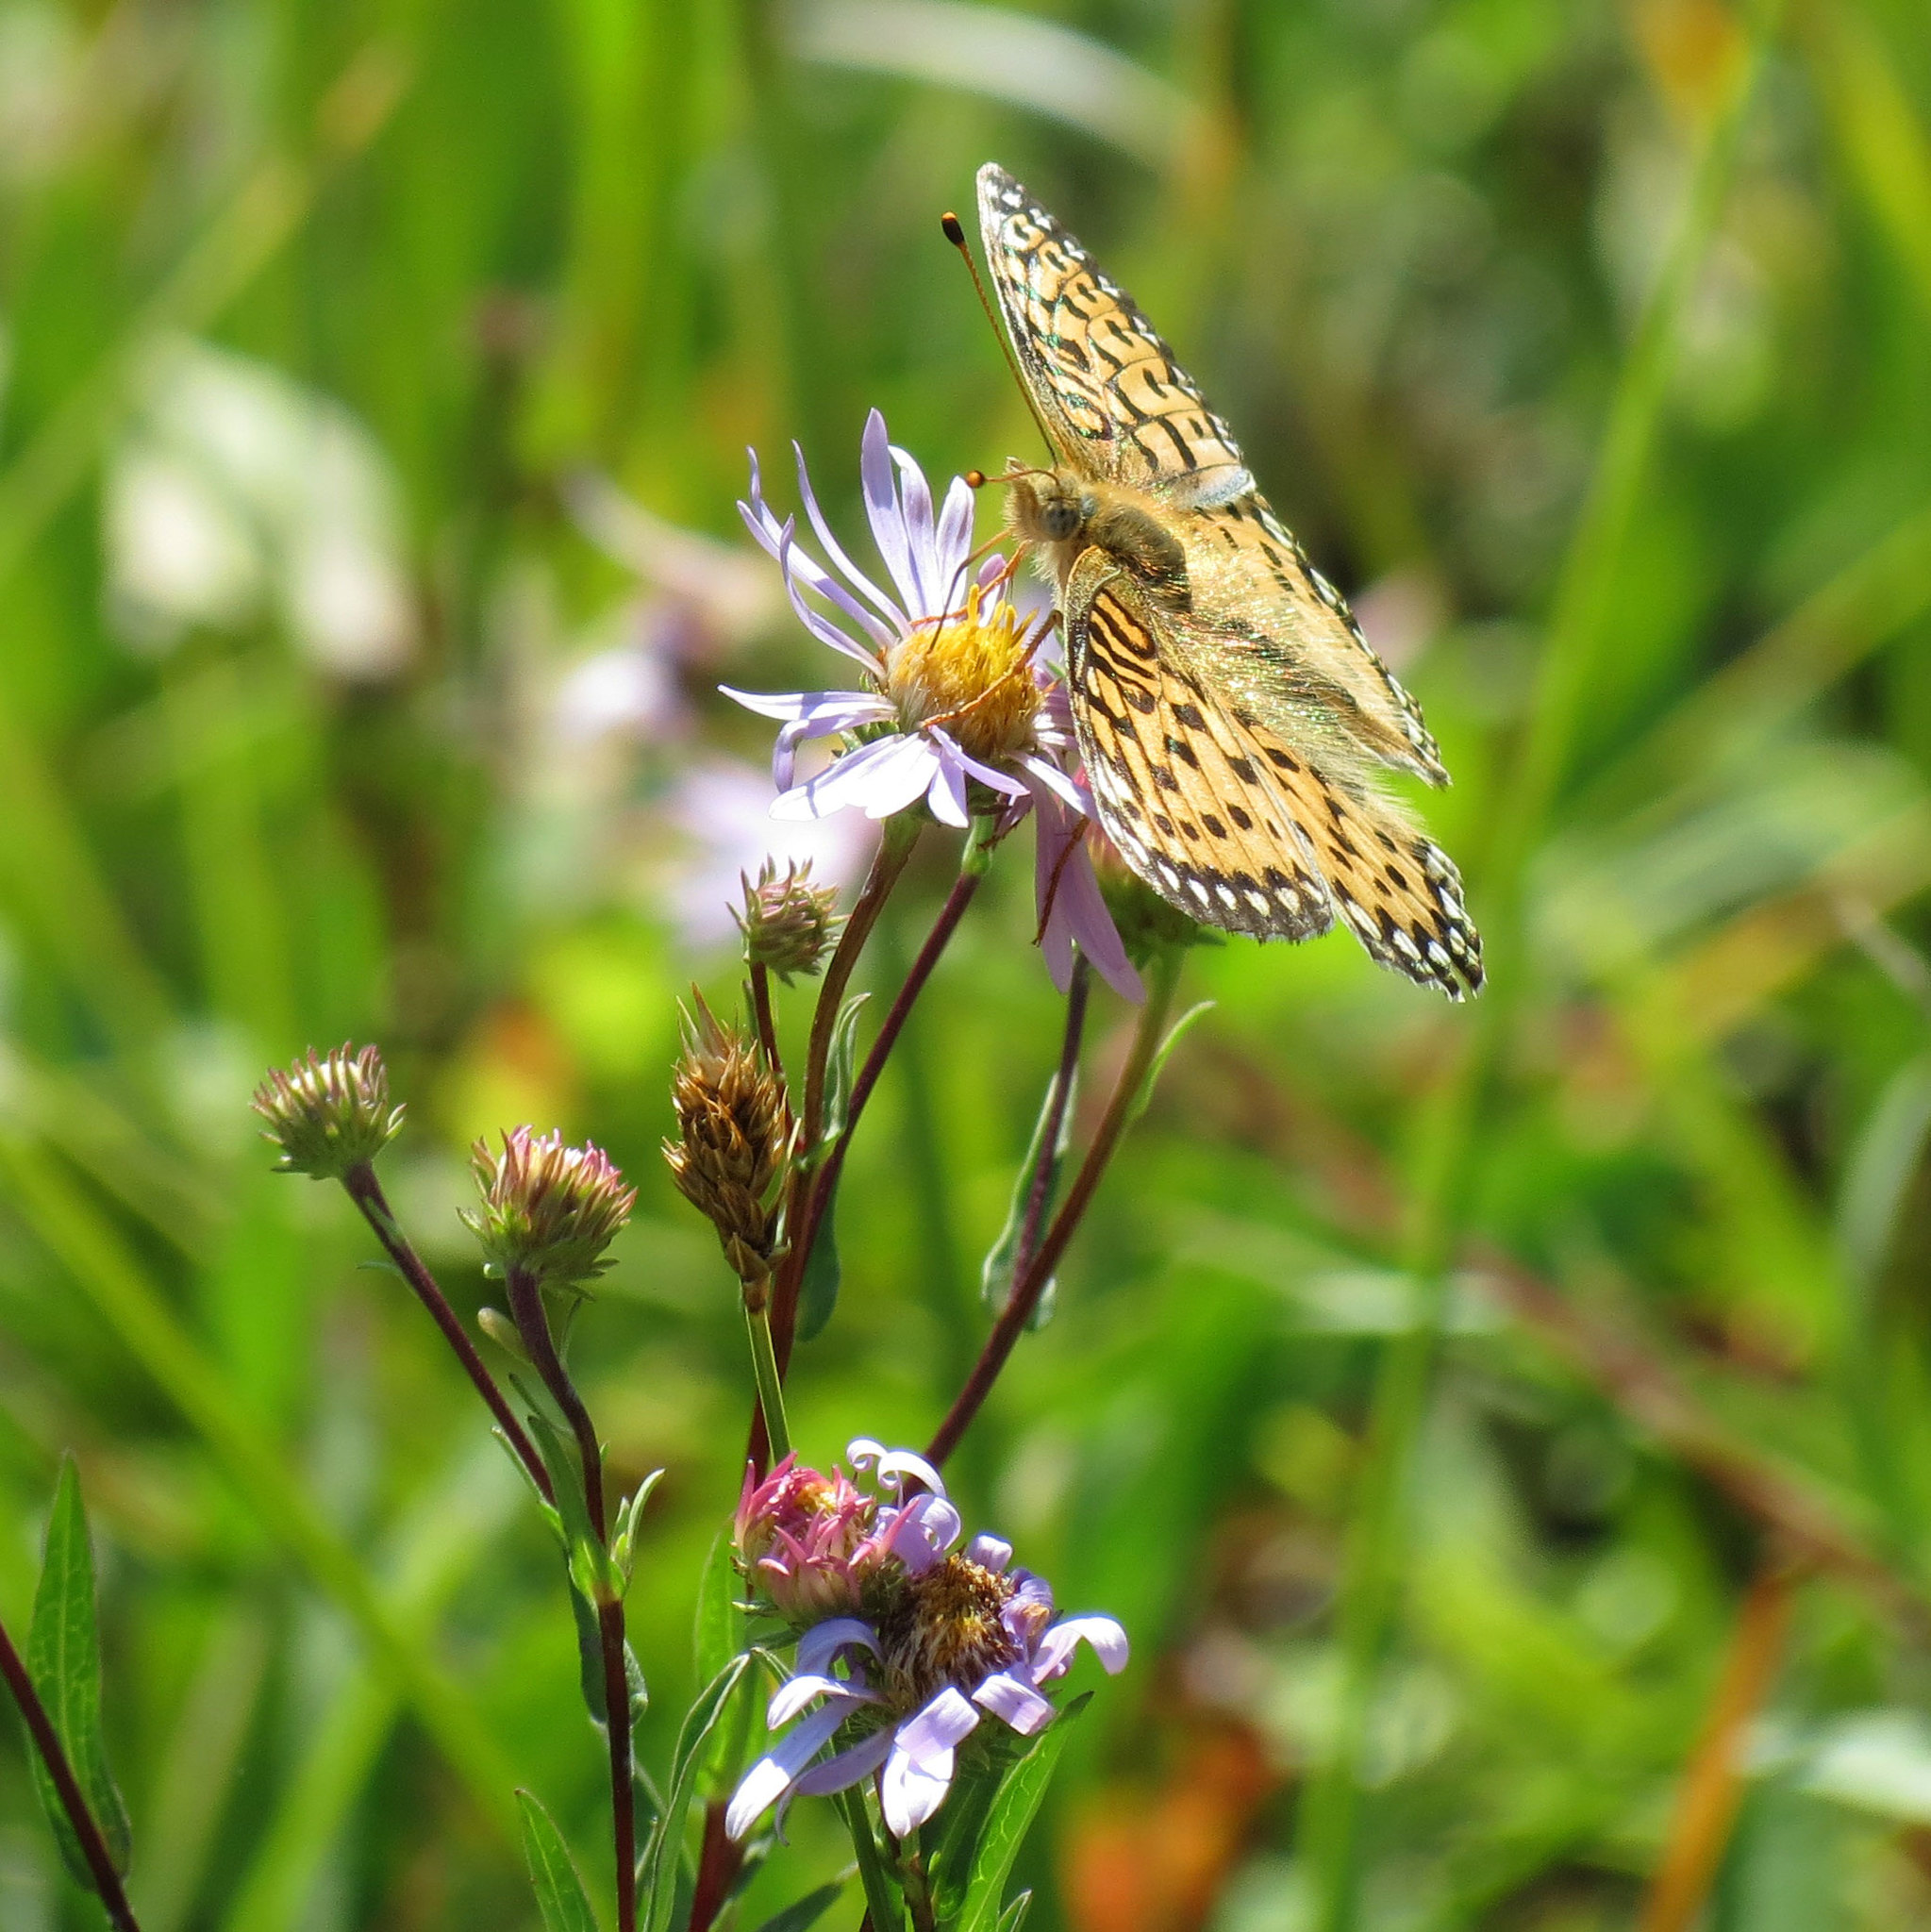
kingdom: Animalia
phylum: Arthropoda
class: Insecta
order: Lepidoptera
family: Nymphalidae
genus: Speyeria
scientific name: Speyeria mormonia
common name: Mormon fritillary
